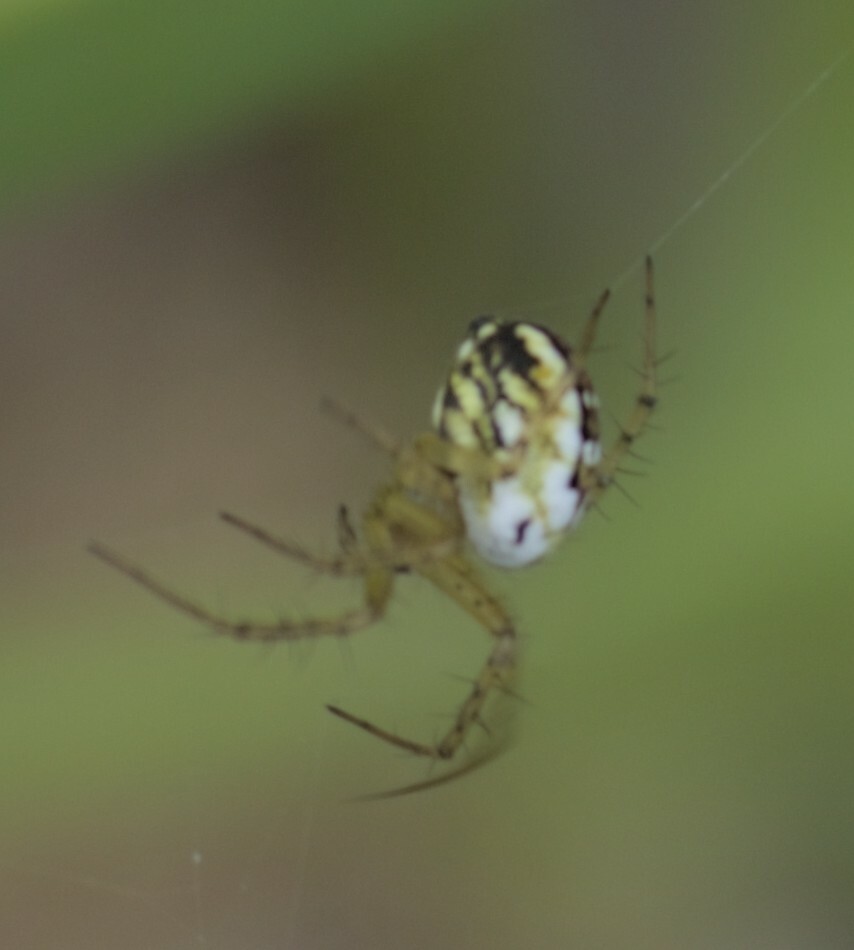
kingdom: Animalia
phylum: Arthropoda
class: Arachnida
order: Araneae
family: Araneidae
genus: Mangora
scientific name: Mangora acalypha
